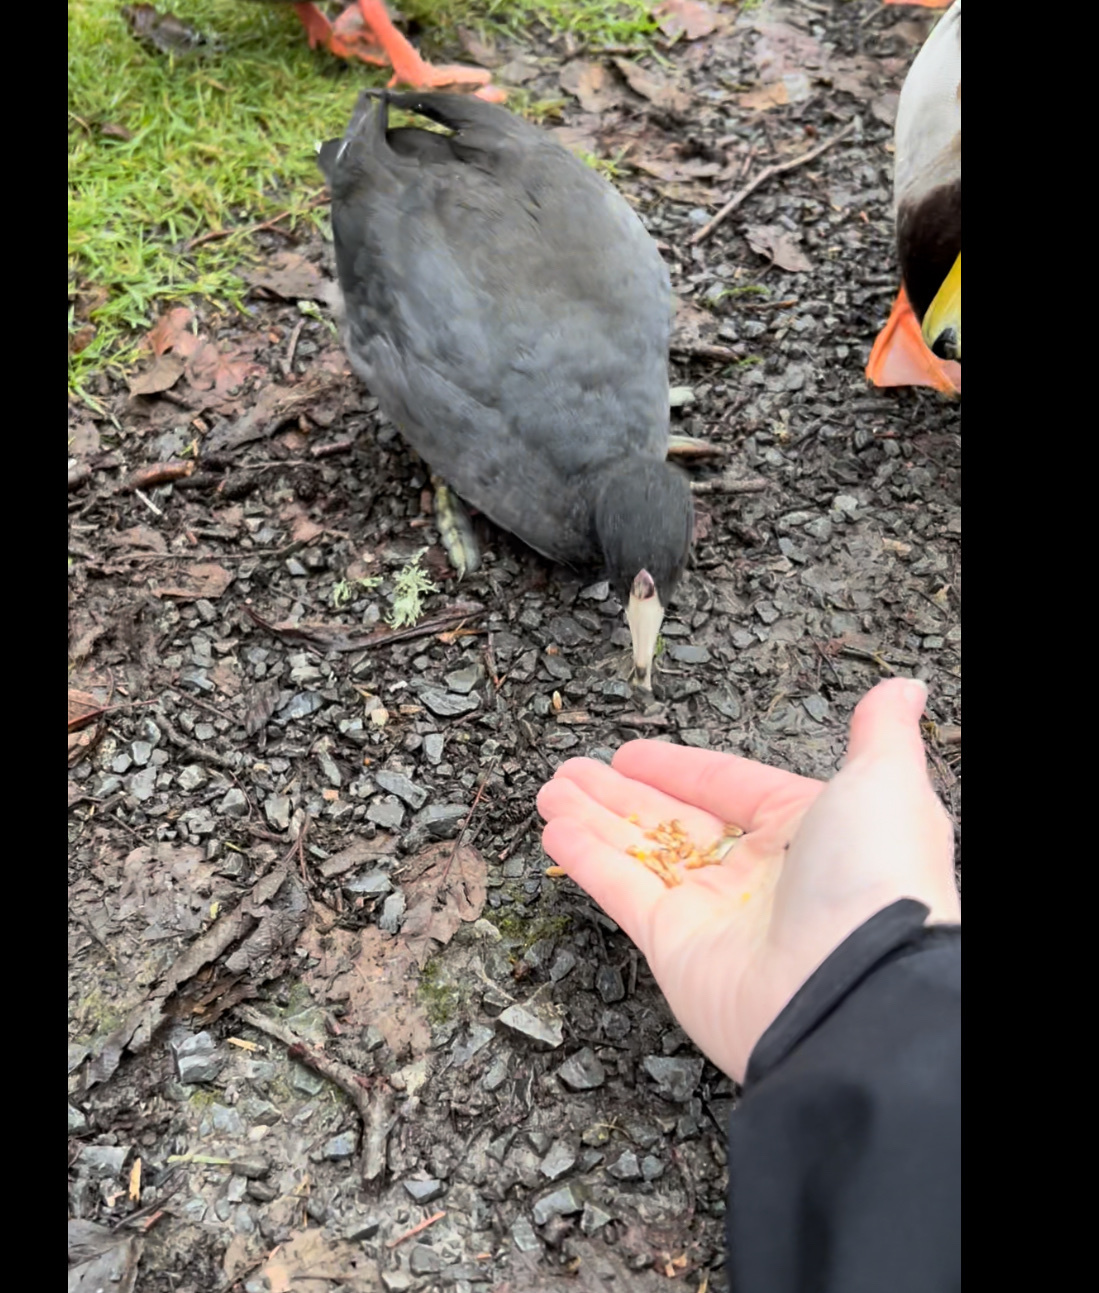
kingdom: Animalia
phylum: Chordata
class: Aves
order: Gruiformes
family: Rallidae
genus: Fulica
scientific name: Fulica americana
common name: American coot
